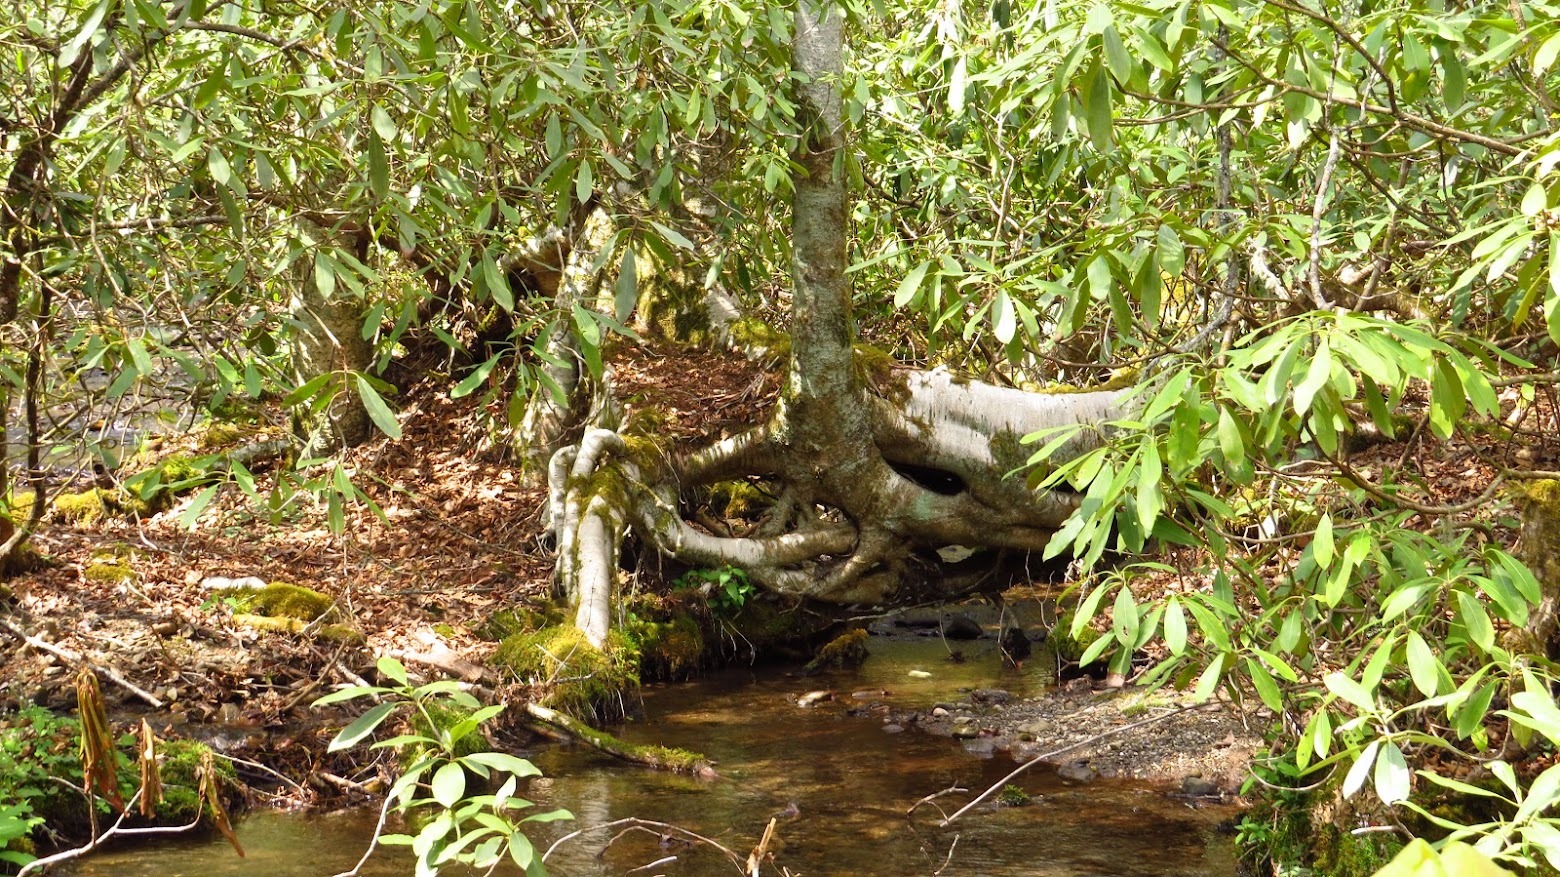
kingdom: Plantae
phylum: Tracheophyta
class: Magnoliopsida
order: Ericales
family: Ericaceae
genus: Rhododendron
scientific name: Rhododendron maximum
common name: Great rhododendron
